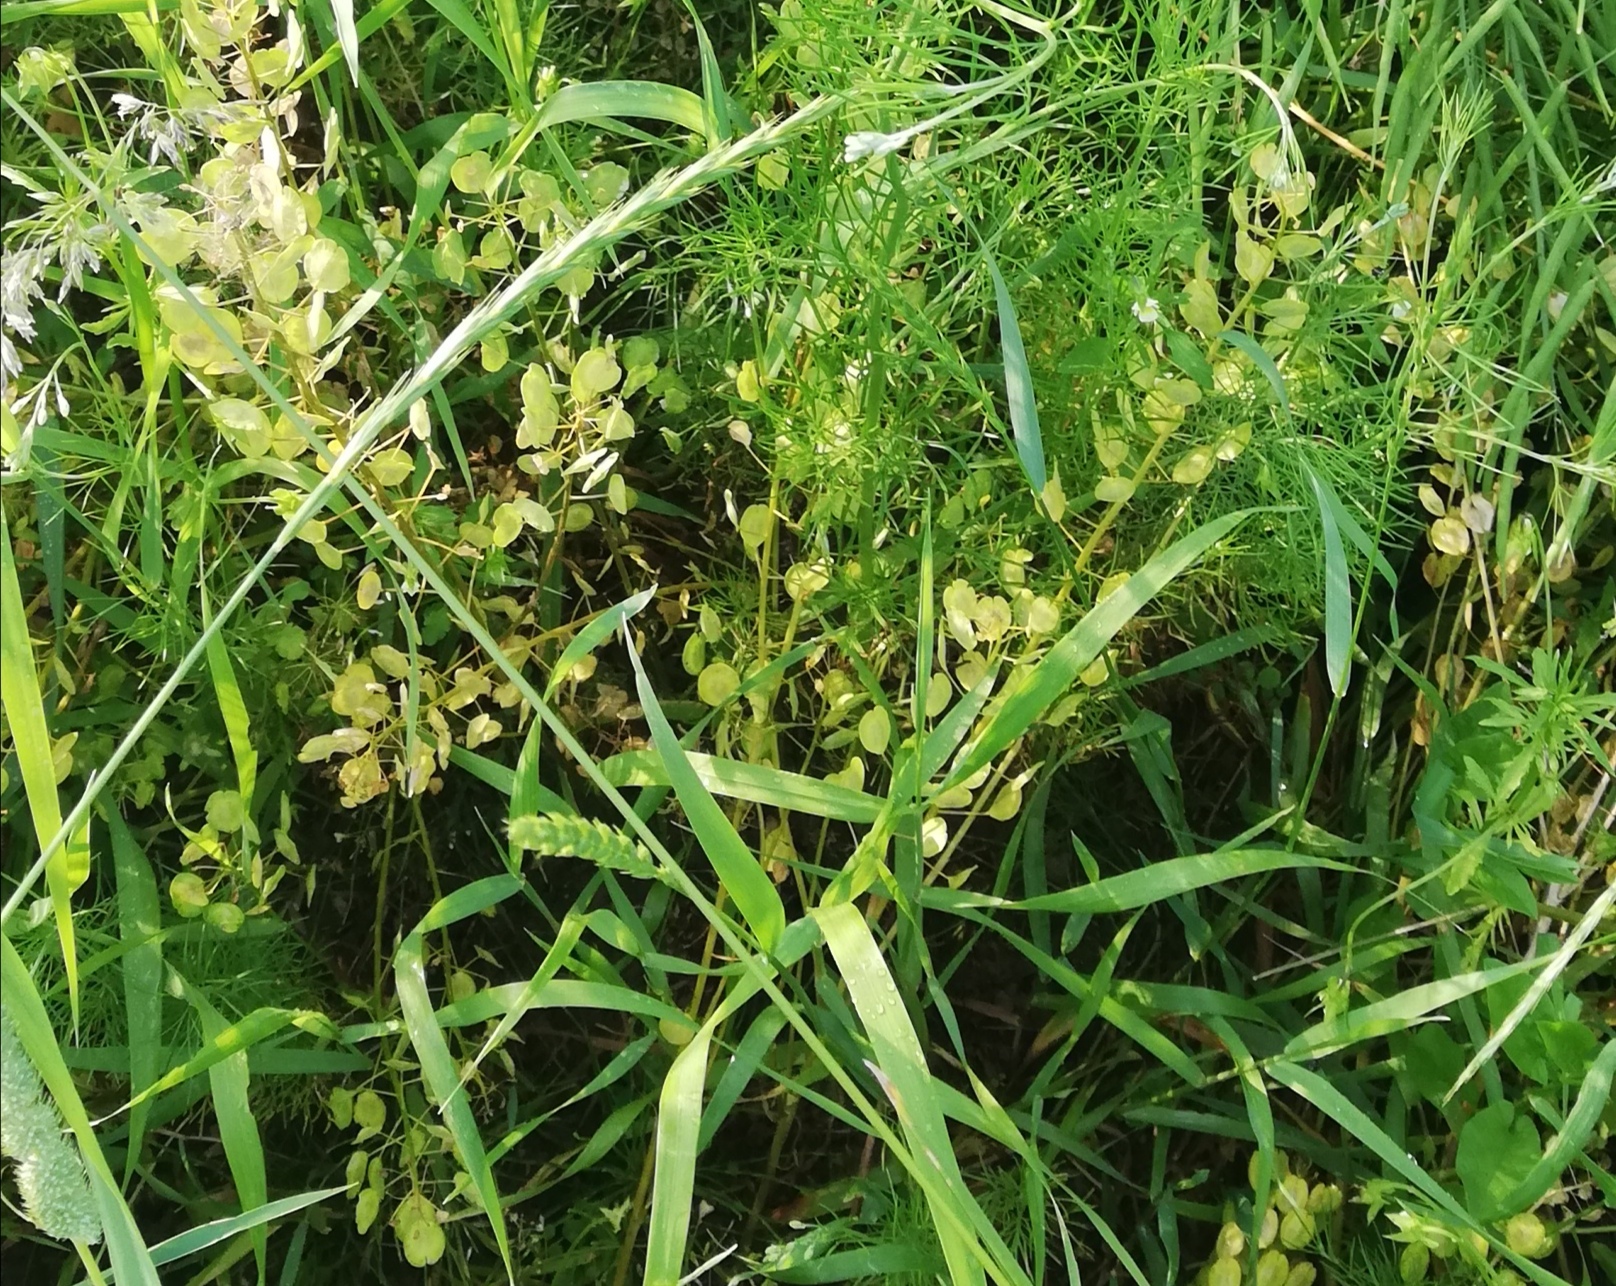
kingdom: Plantae
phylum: Tracheophyta
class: Magnoliopsida
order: Brassicales
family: Brassicaceae
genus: Thlaspi
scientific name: Thlaspi arvense
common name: Field pennycress
